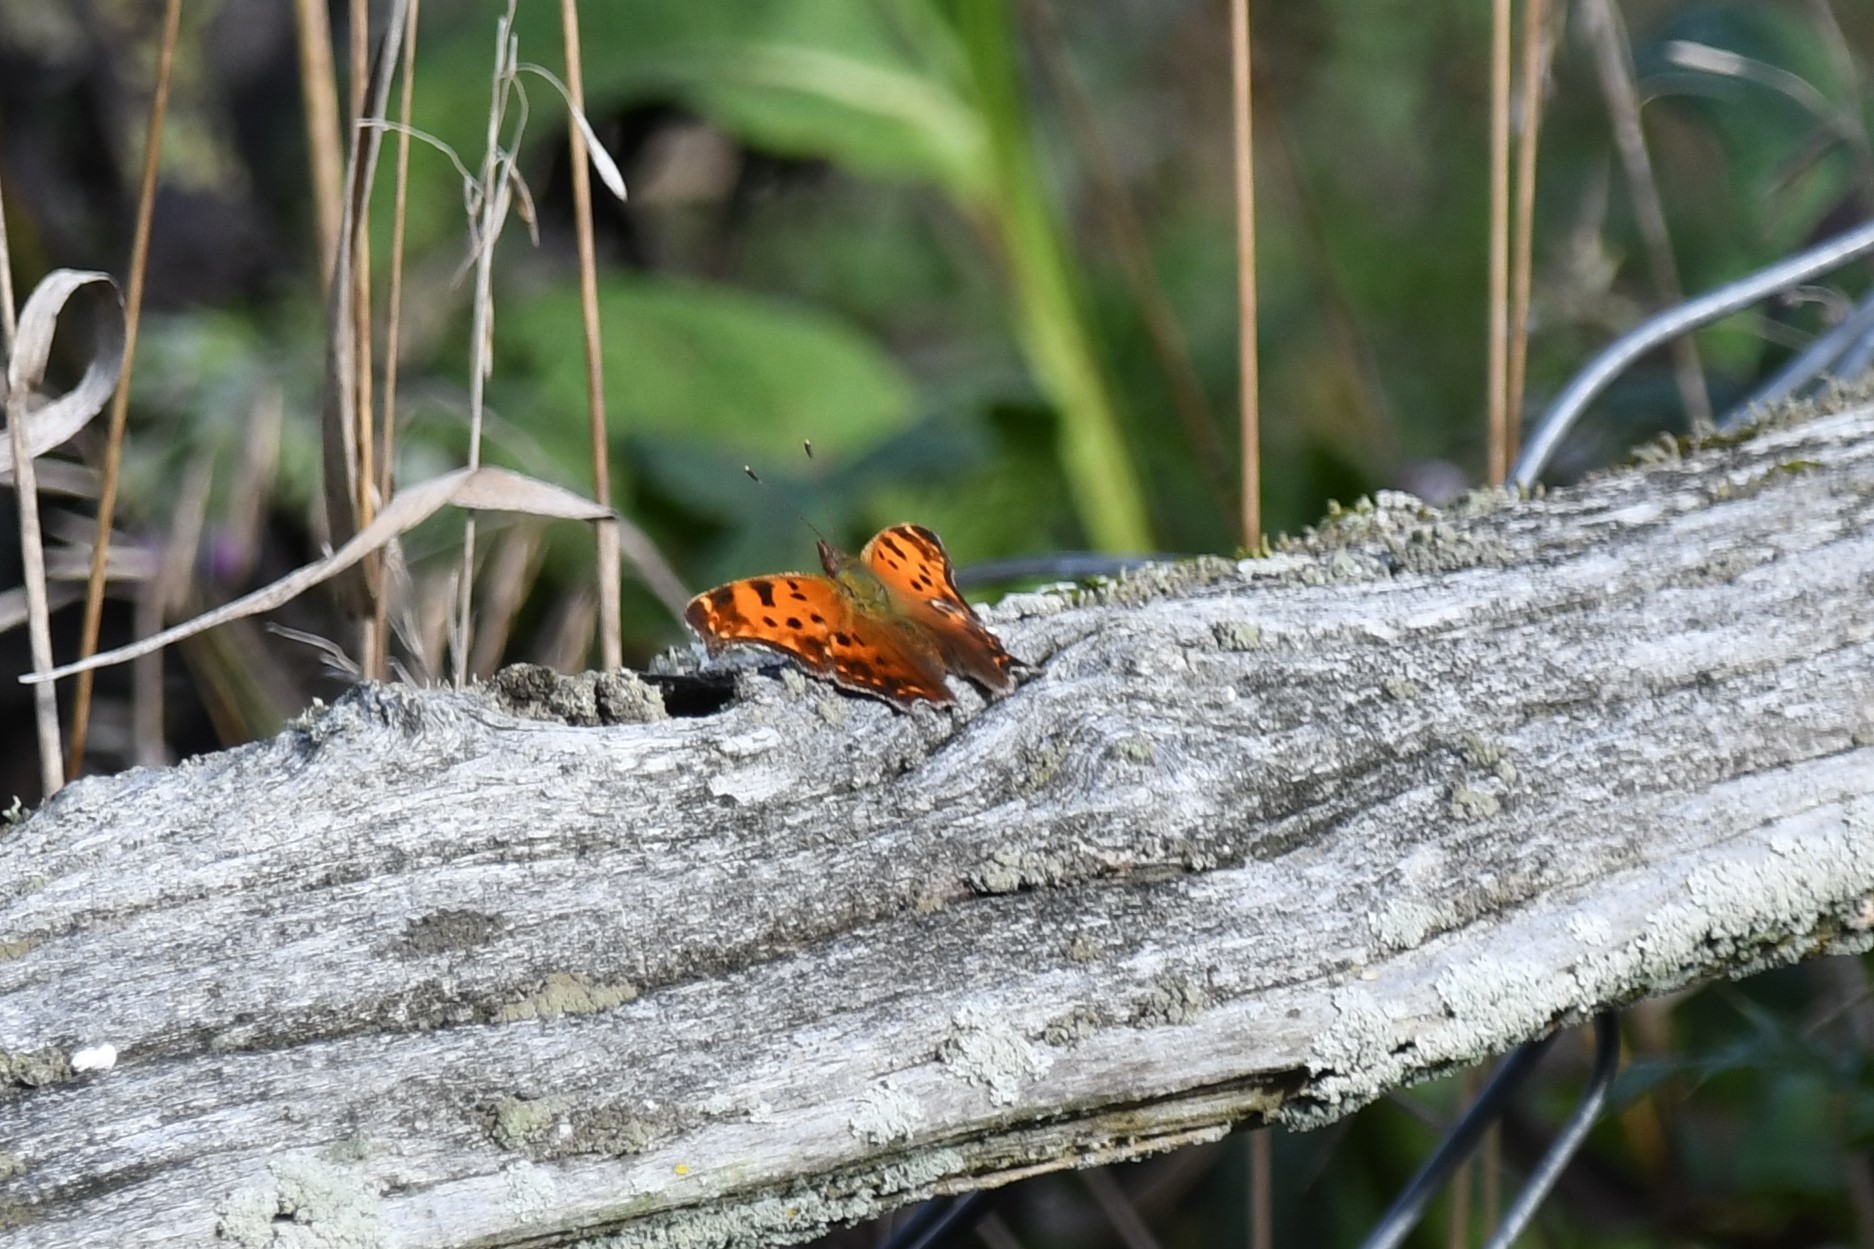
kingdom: Animalia
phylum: Arthropoda
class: Insecta
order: Lepidoptera
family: Nymphalidae
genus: Polygonia
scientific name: Polygonia comma
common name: Eastern comma
